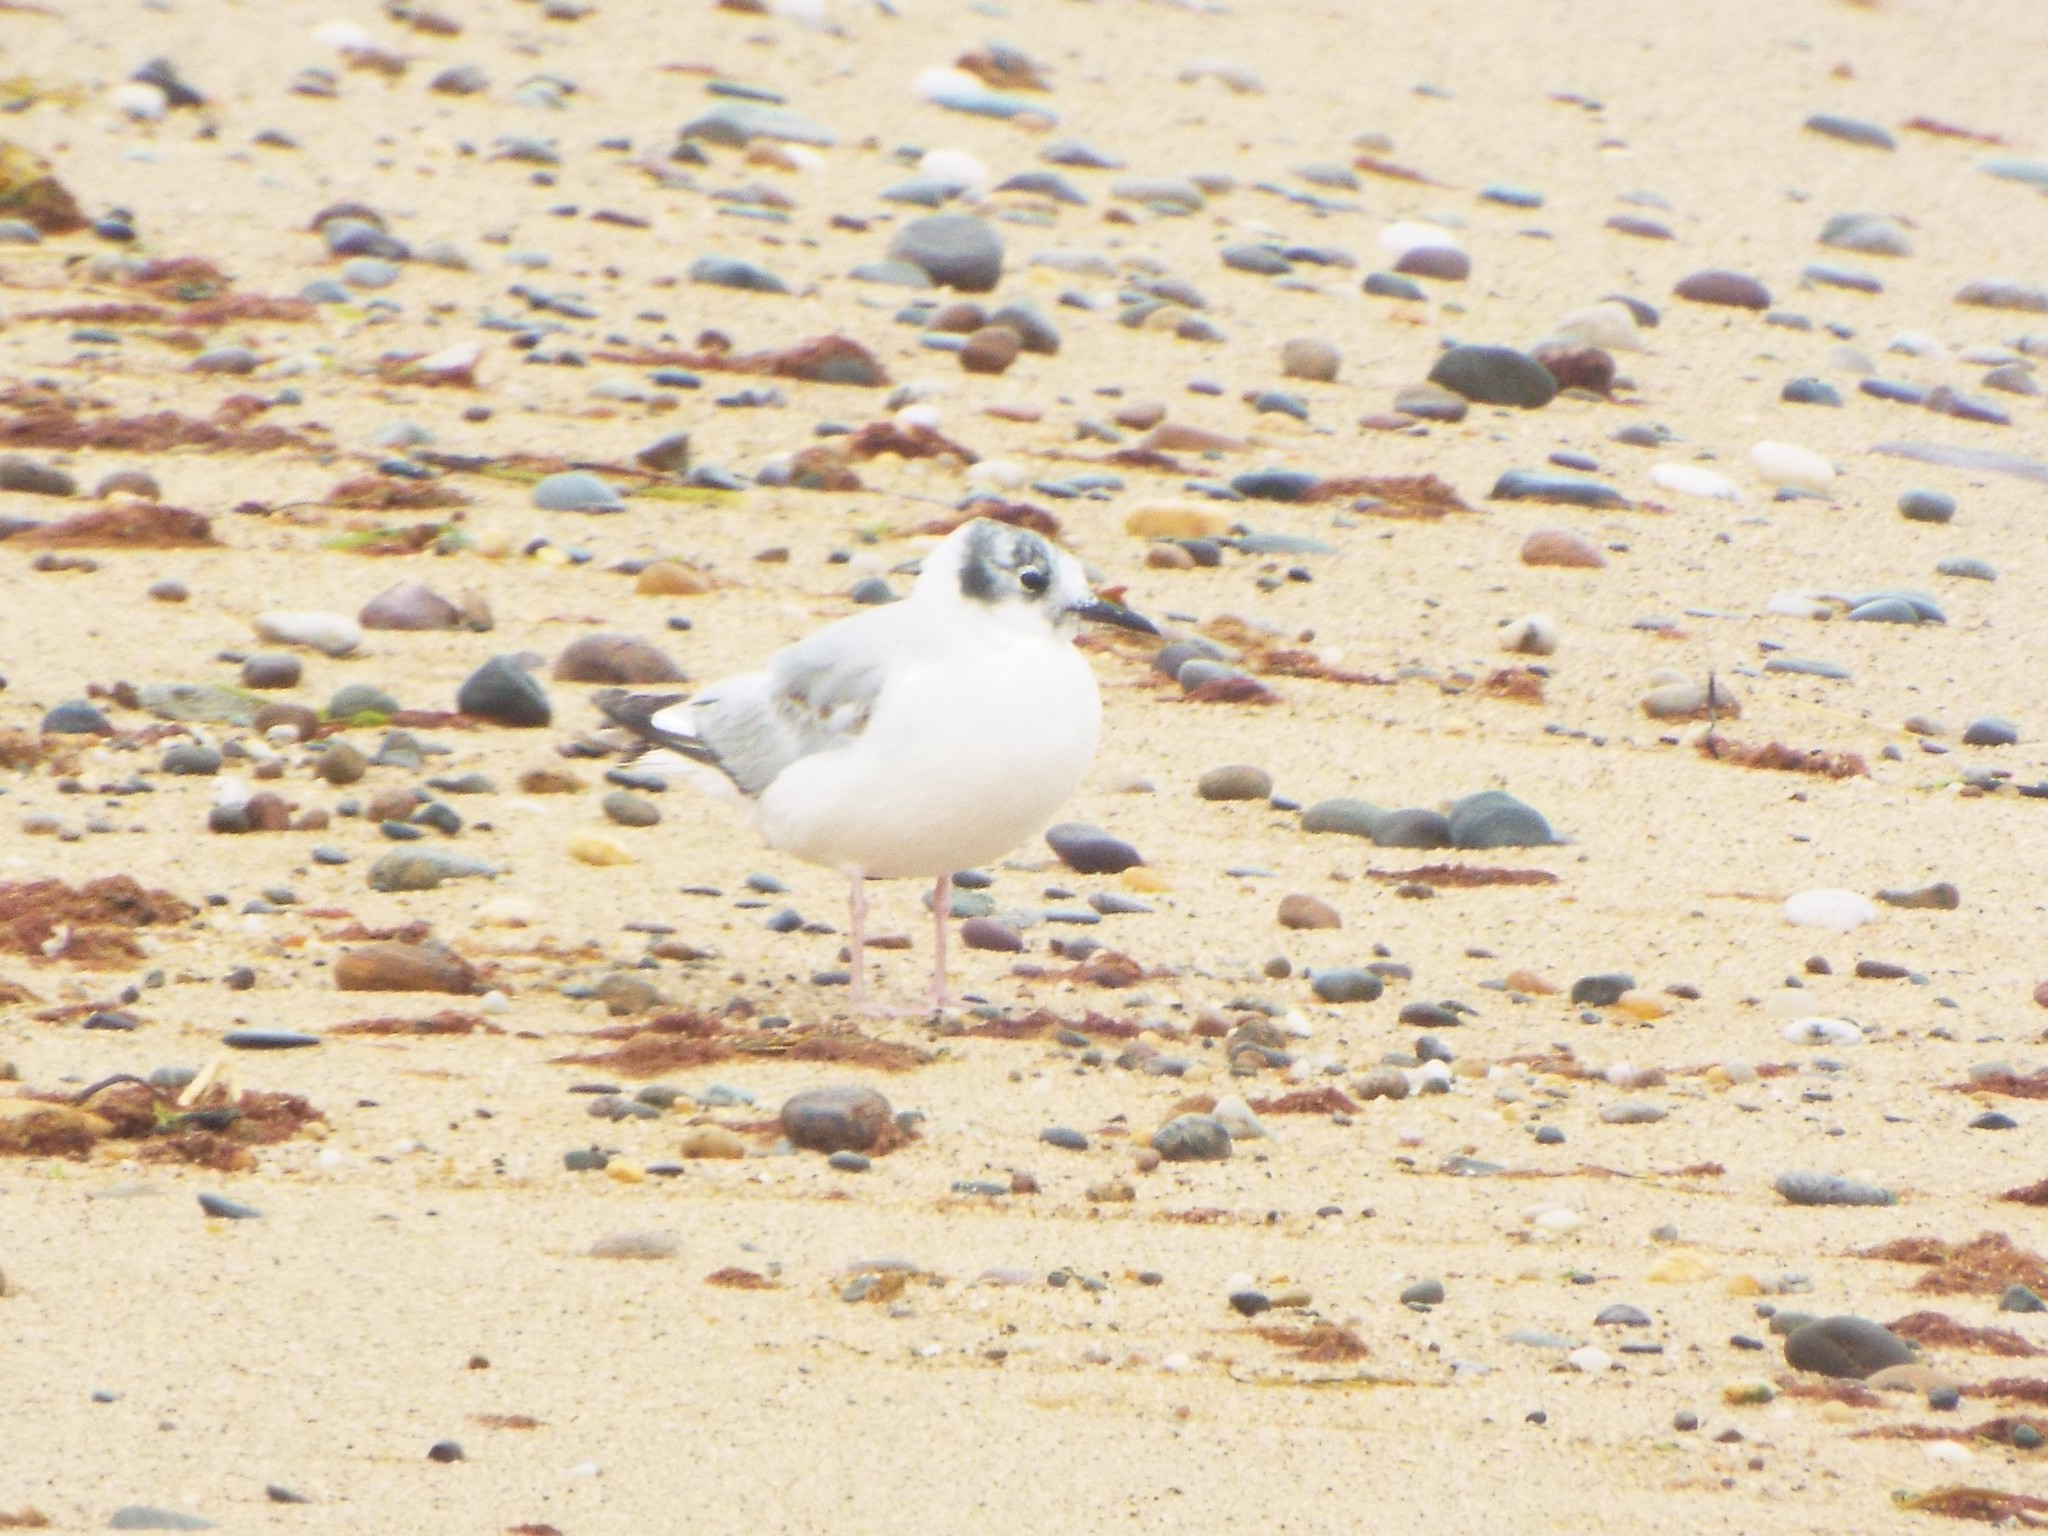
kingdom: Animalia
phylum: Chordata
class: Aves
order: Charadriiformes
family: Laridae
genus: Chroicocephalus
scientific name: Chroicocephalus philadelphia
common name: Bonaparte's gull
